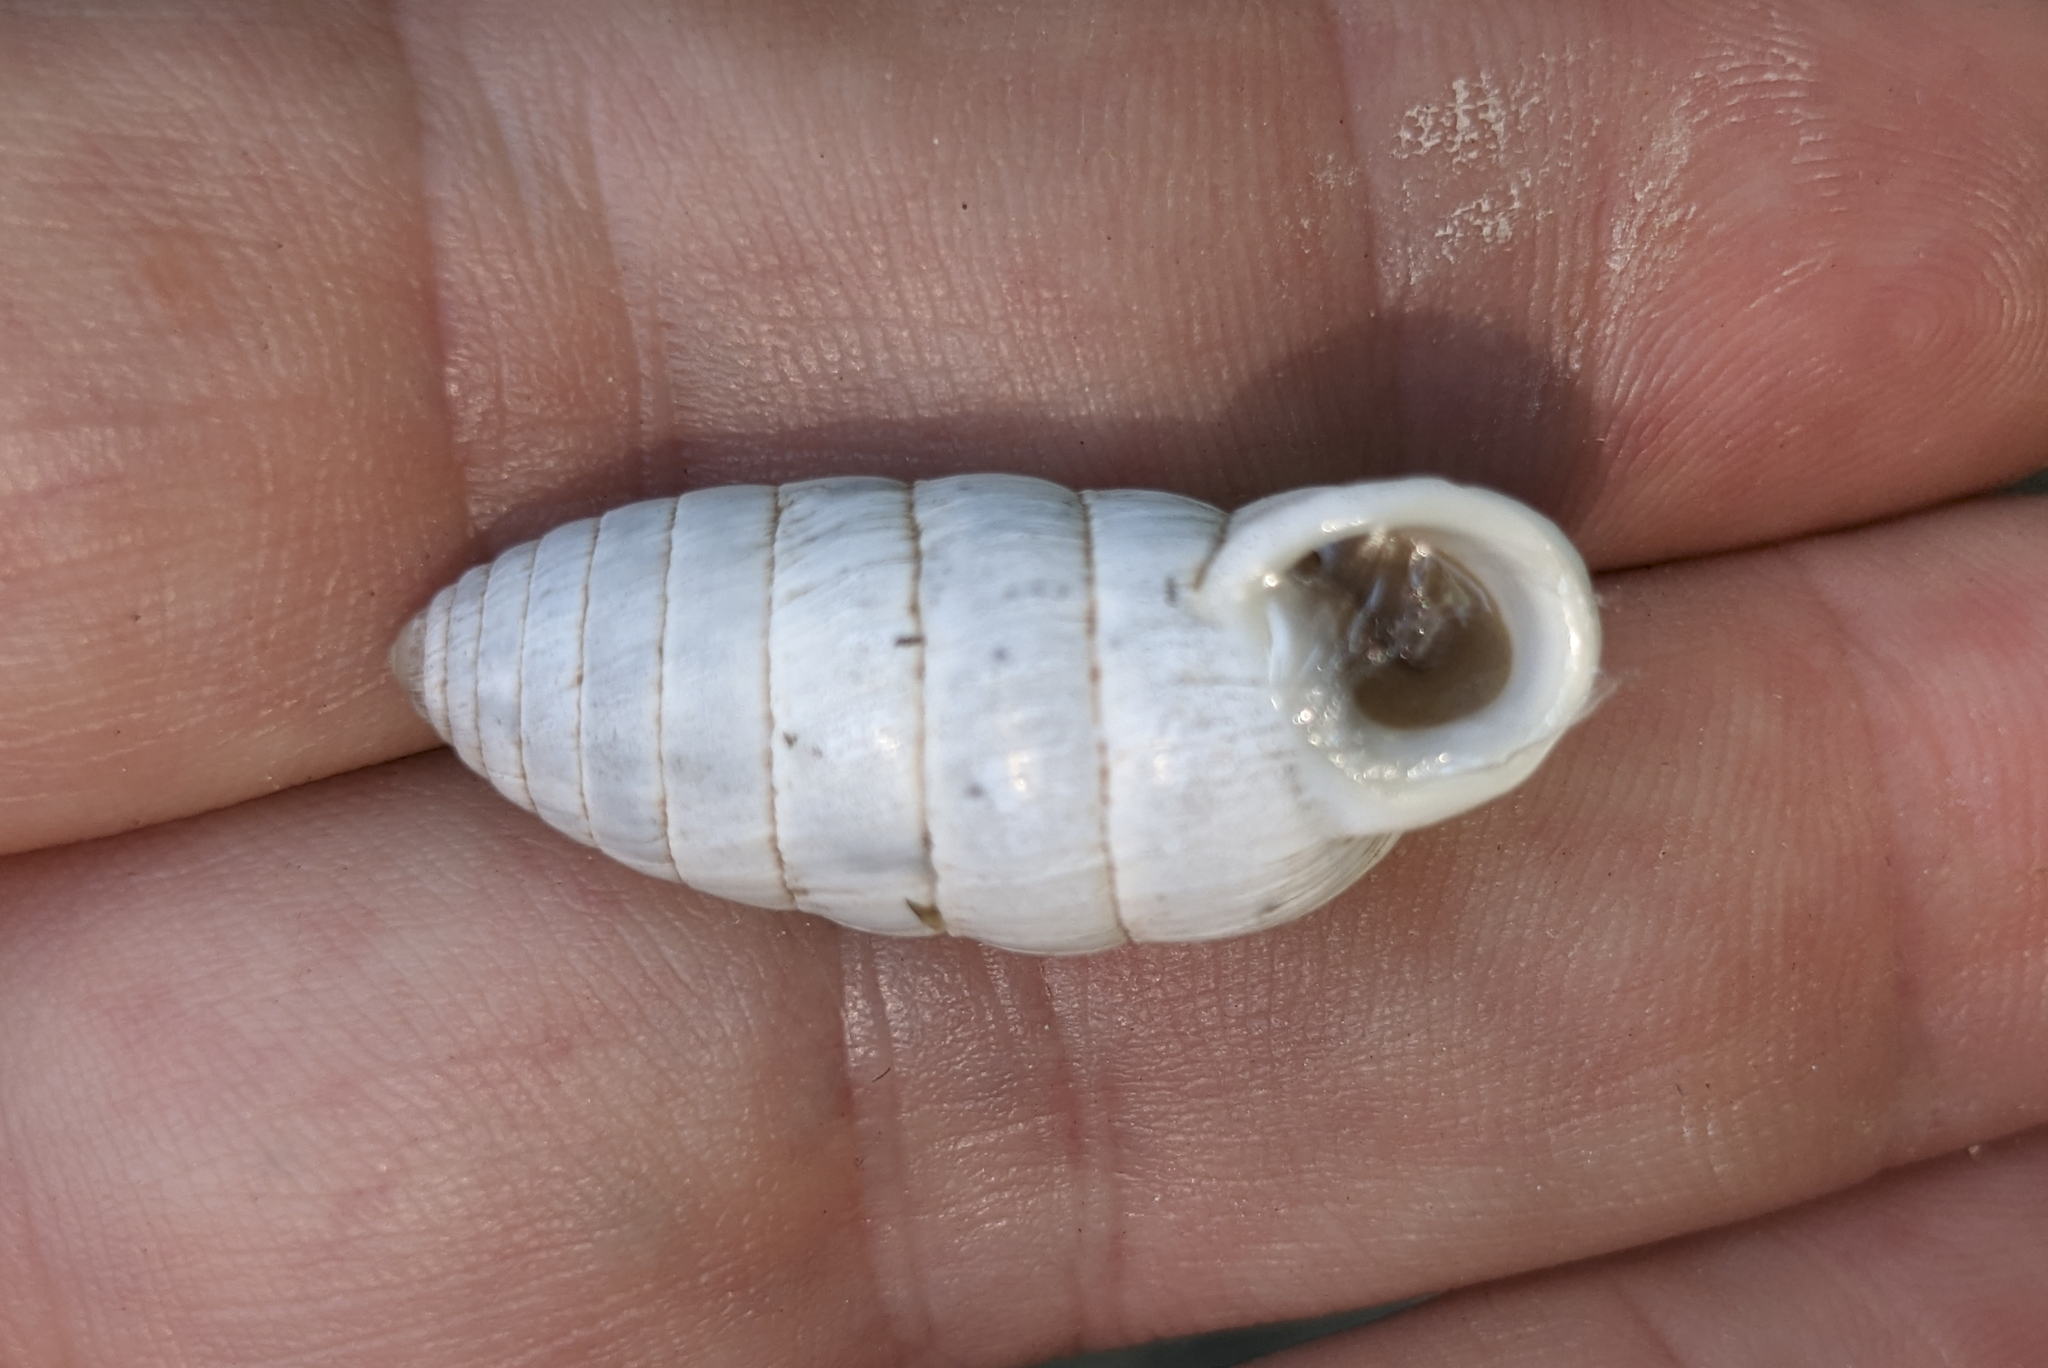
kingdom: Animalia
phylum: Mollusca
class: Gastropoda
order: Stylommatophora
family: Cerionidae
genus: Cerion
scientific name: Cerion incanum
